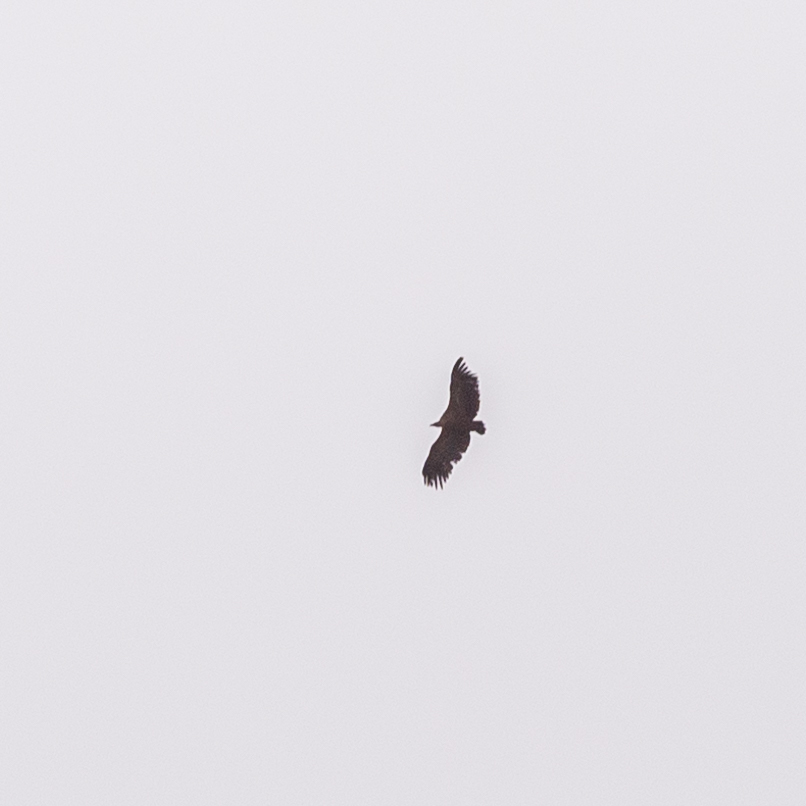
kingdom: Animalia
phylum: Chordata
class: Aves
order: Accipitriformes
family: Accipitridae
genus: Gyps
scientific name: Gyps fulvus
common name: Griffon vulture
